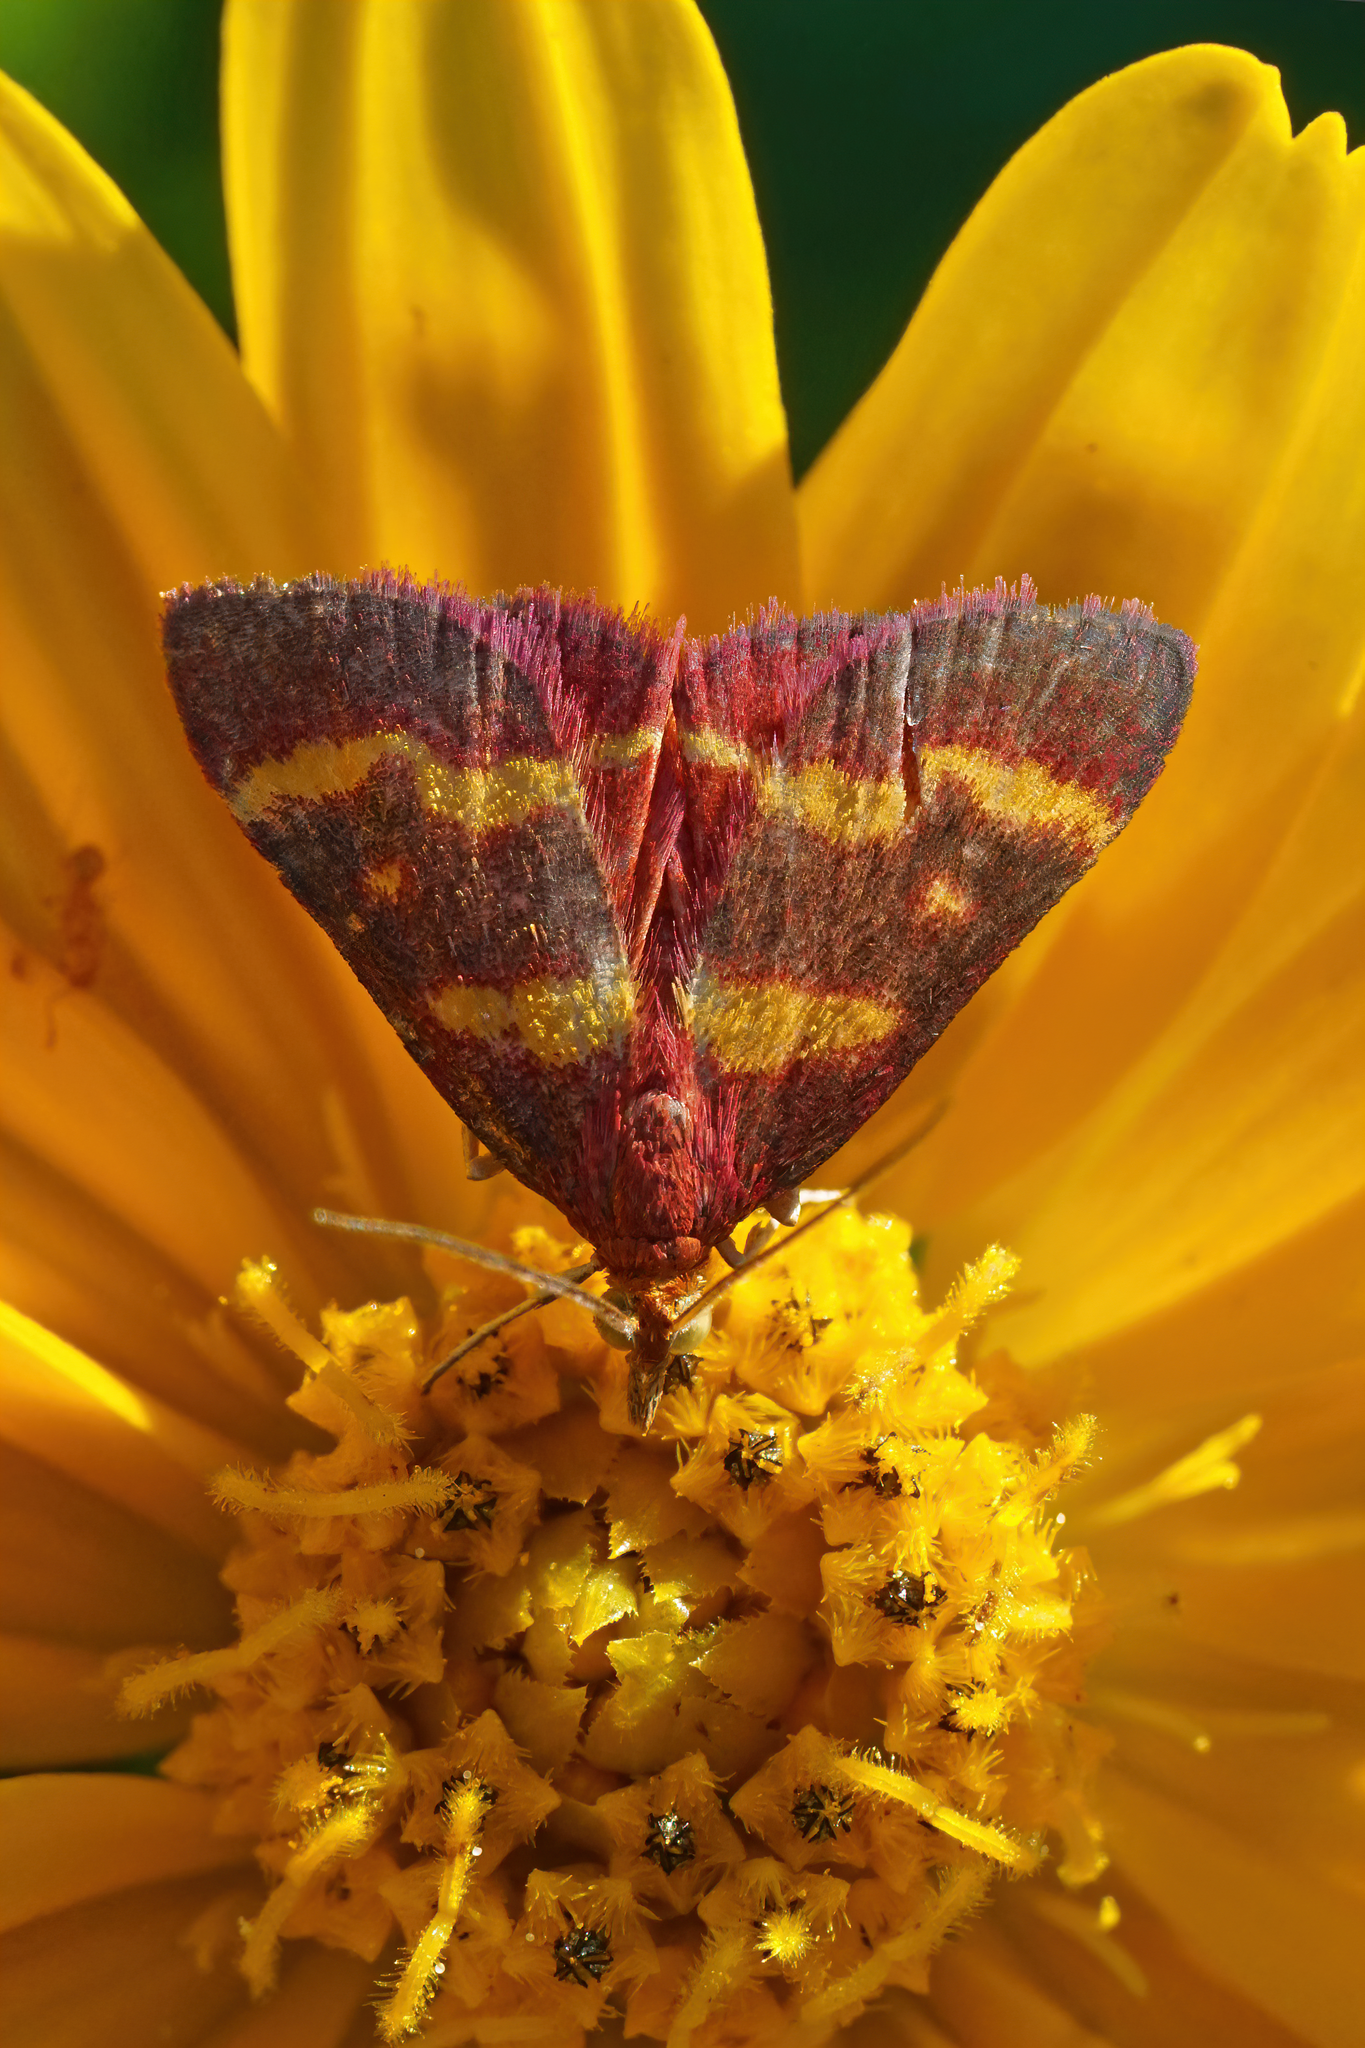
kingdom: Animalia
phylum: Arthropoda
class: Insecta
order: Lepidoptera
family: Crambidae
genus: Pyrausta
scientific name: Pyrausta tyralis
